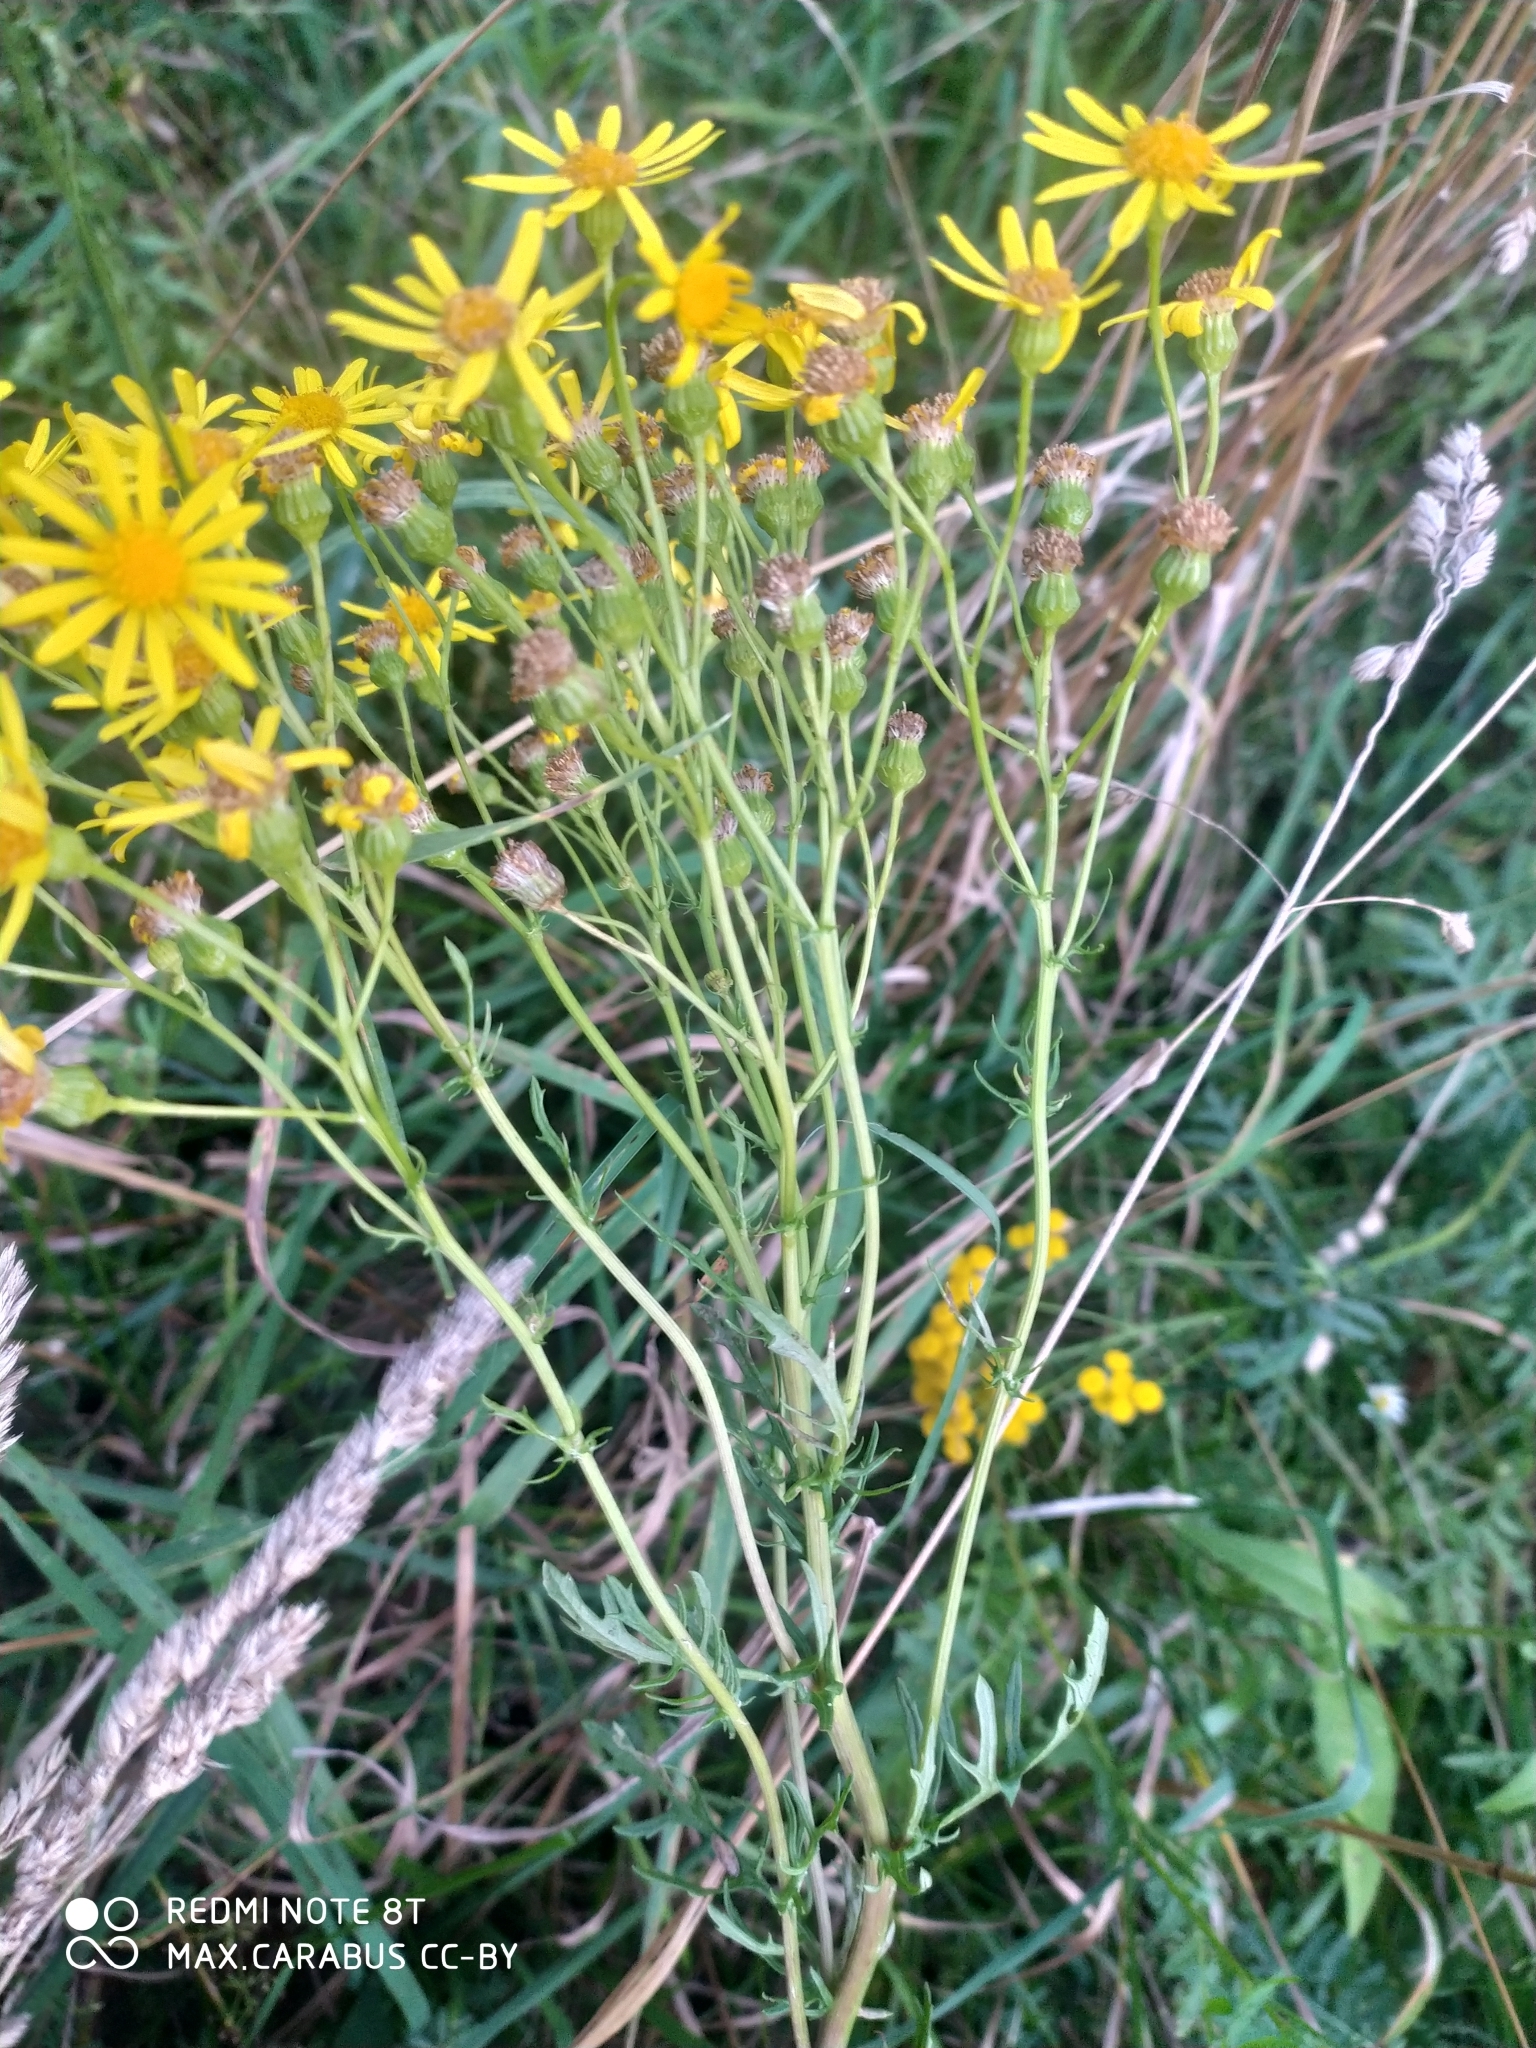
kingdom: Plantae
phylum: Tracheophyta
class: Magnoliopsida
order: Asterales
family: Asteraceae
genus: Jacobaea
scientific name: Jacobaea vulgaris
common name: Stinking willie
